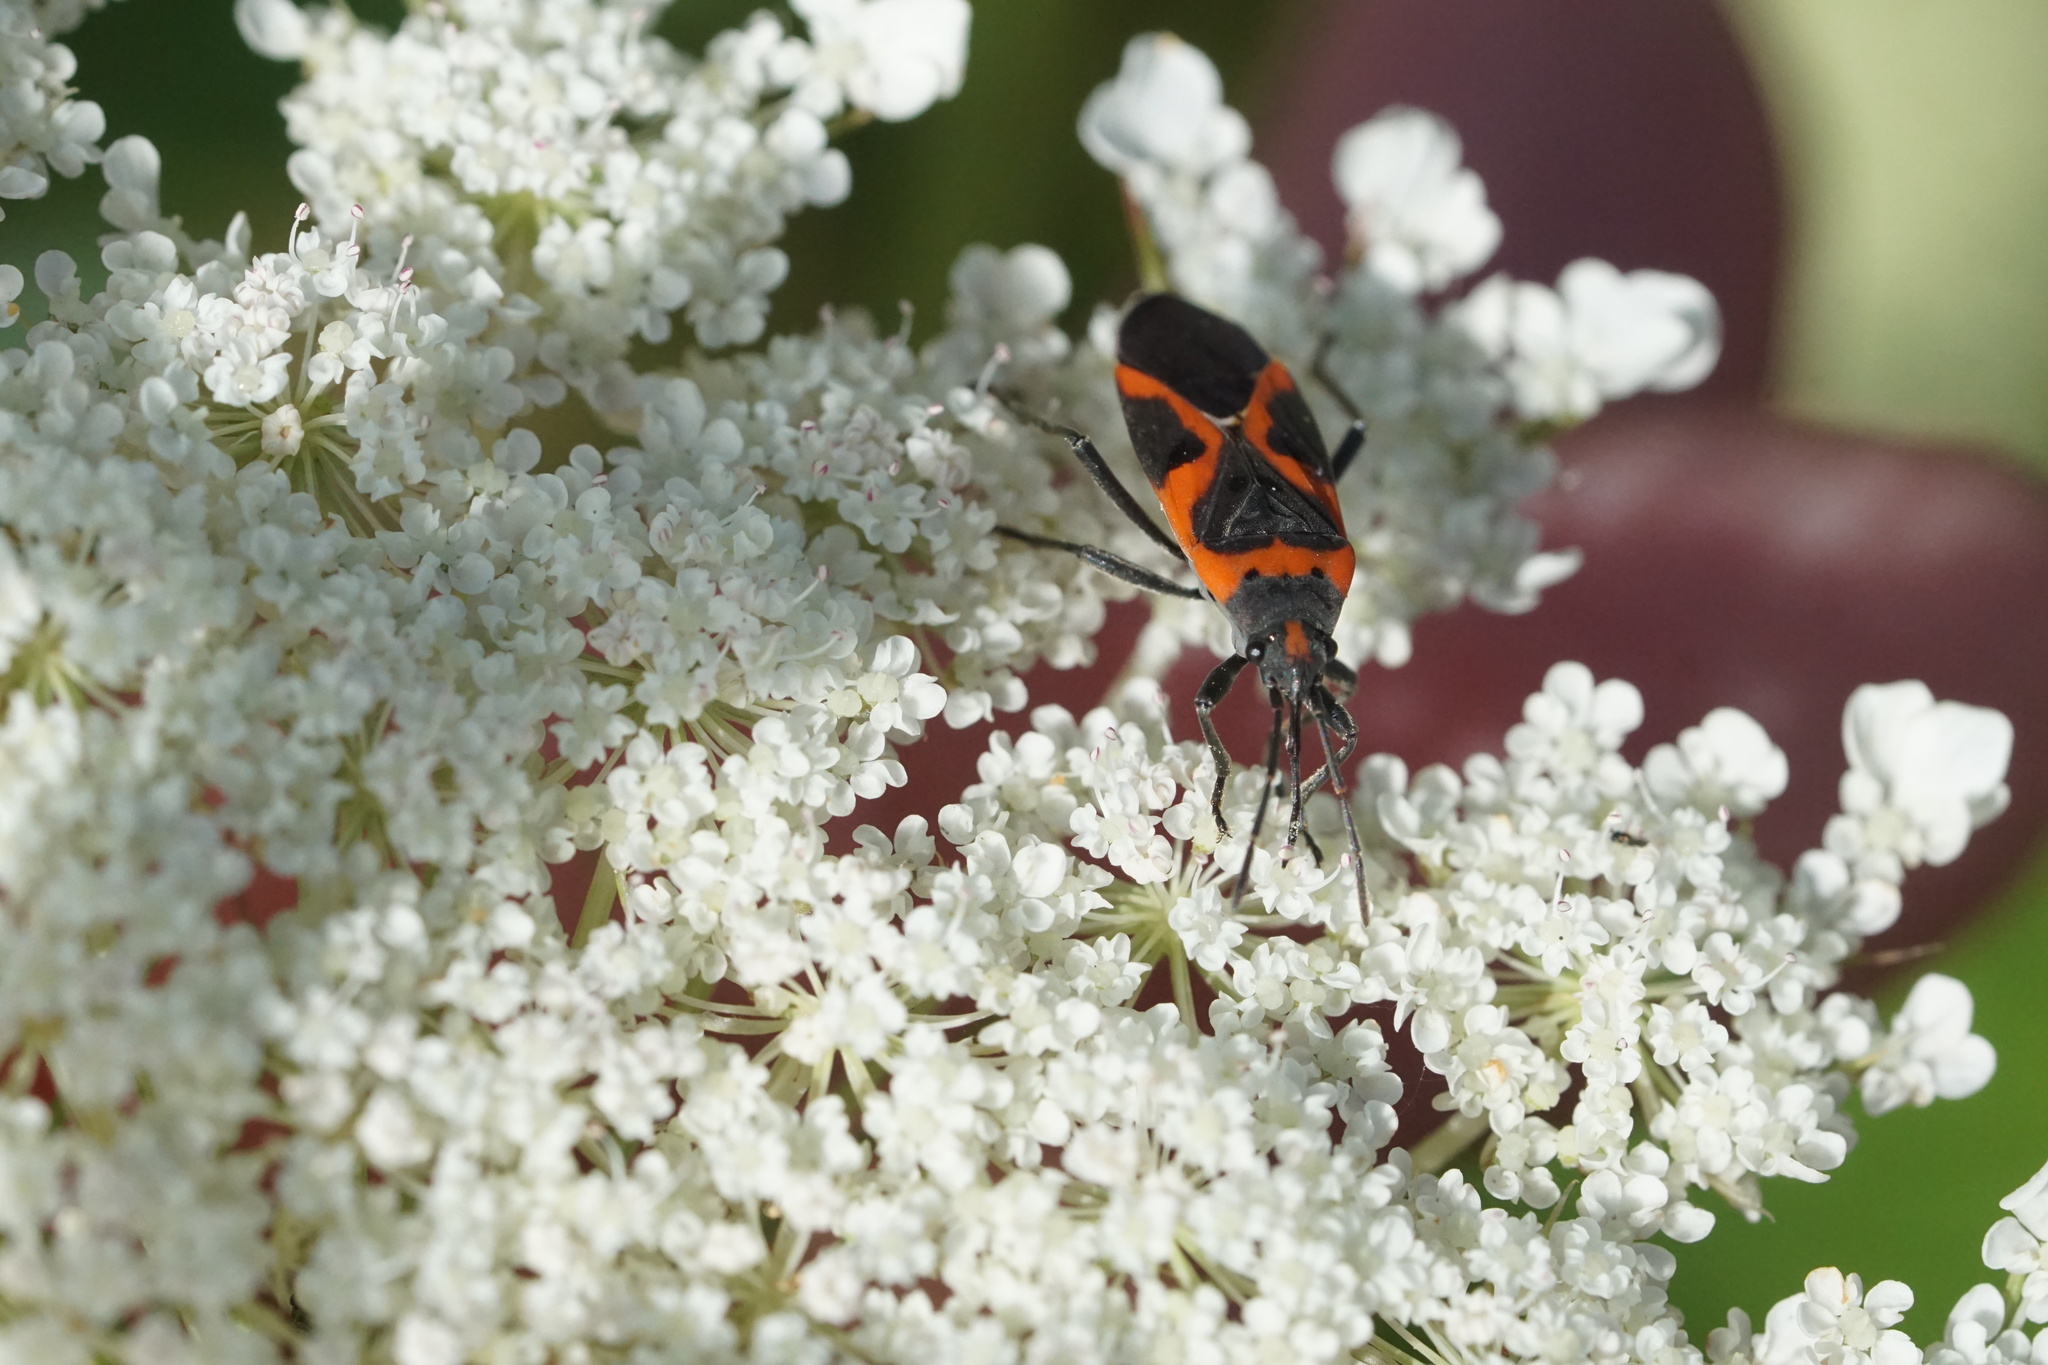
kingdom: Animalia
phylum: Arthropoda
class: Insecta
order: Hemiptera
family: Lygaeidae
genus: Lygaeus
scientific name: Lygaeus kalmii
